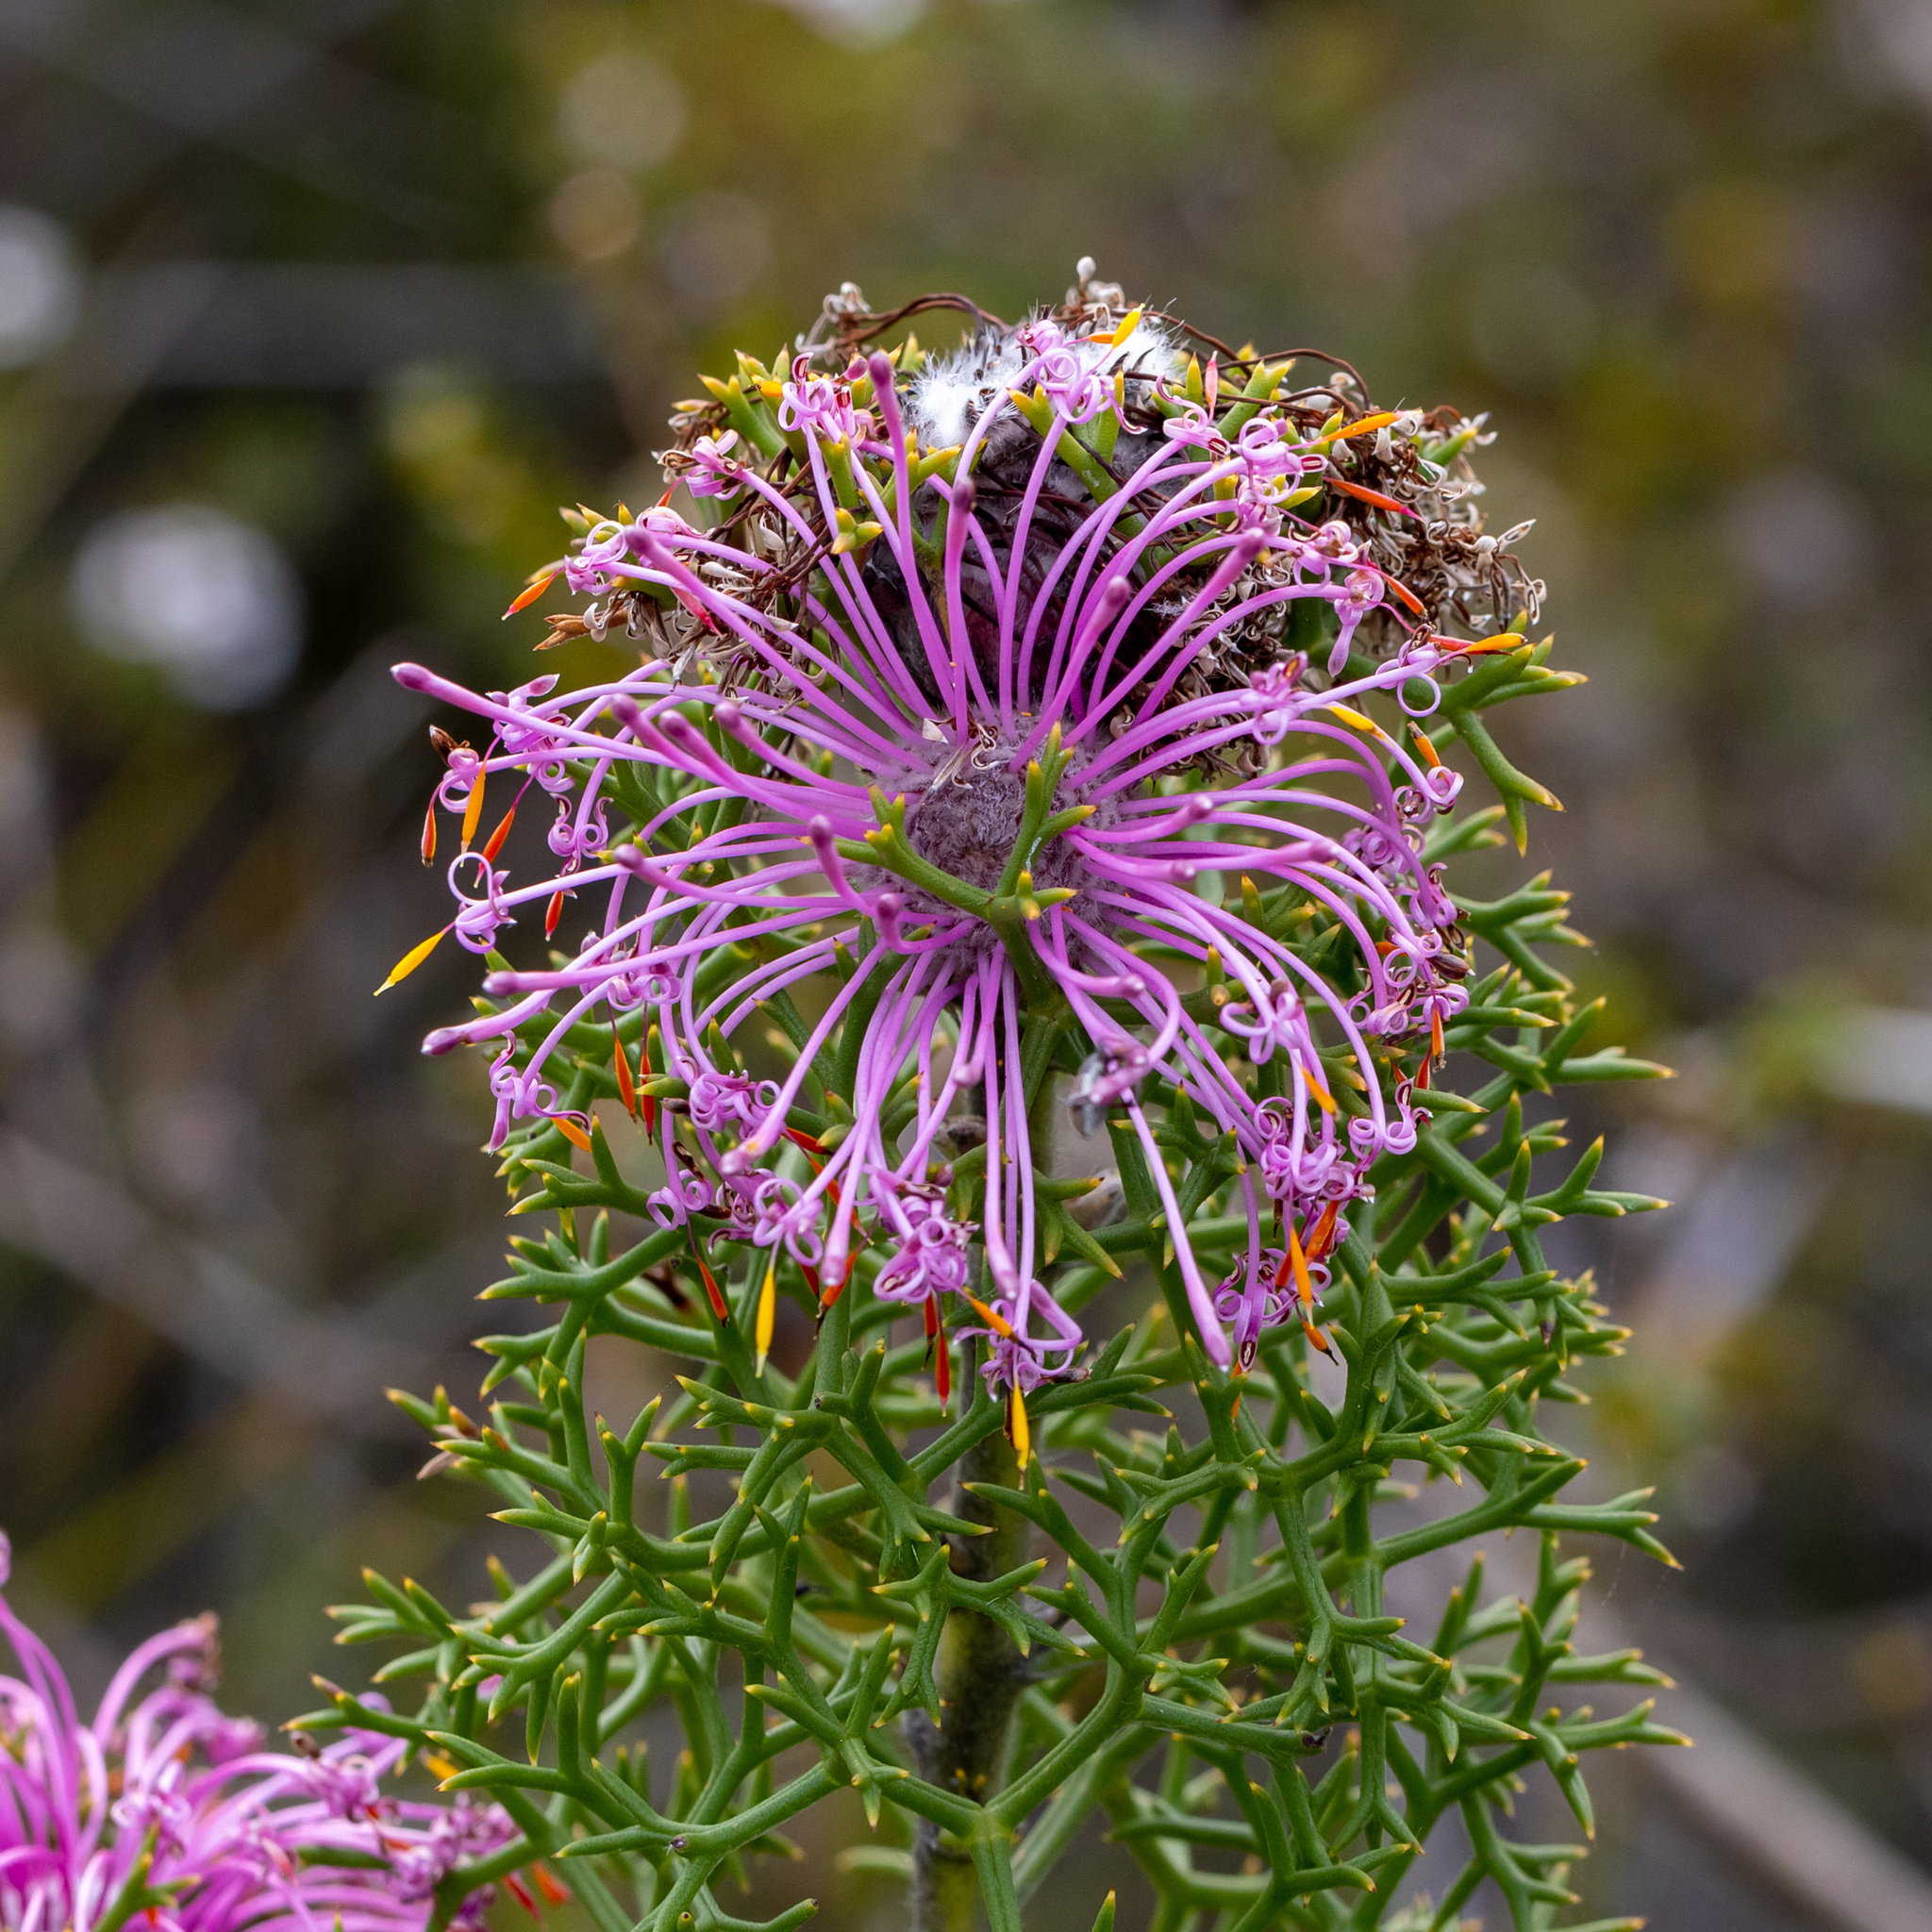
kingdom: Plantae
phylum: Tracheophyta
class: Magnoliopsida
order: Proteales
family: Proteaceae
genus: Isopogon
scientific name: Isopogon formosus
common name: Rose-coneflower
